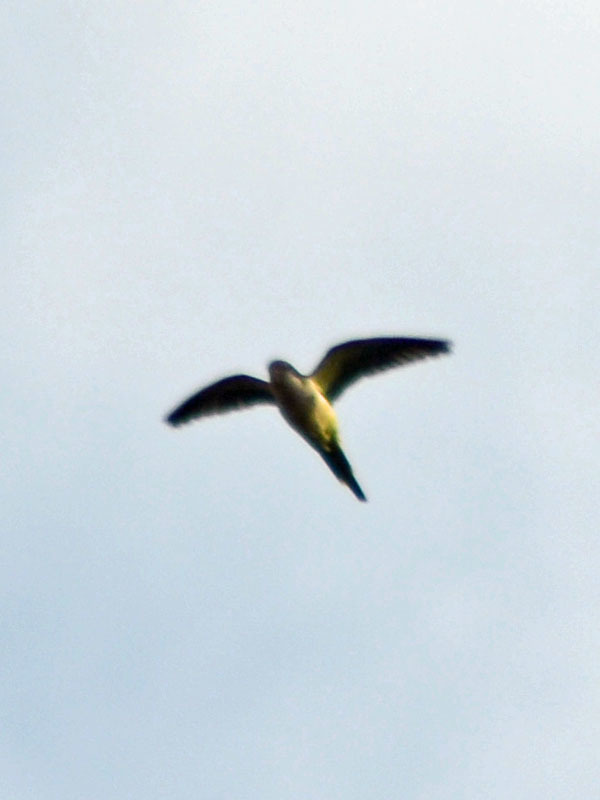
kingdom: Animalia
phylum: Chordata
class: Aves
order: Psittaciformes
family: Psittacidae
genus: Myiopsitta
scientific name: Myiopsitta monachus
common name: Monk parakeet
